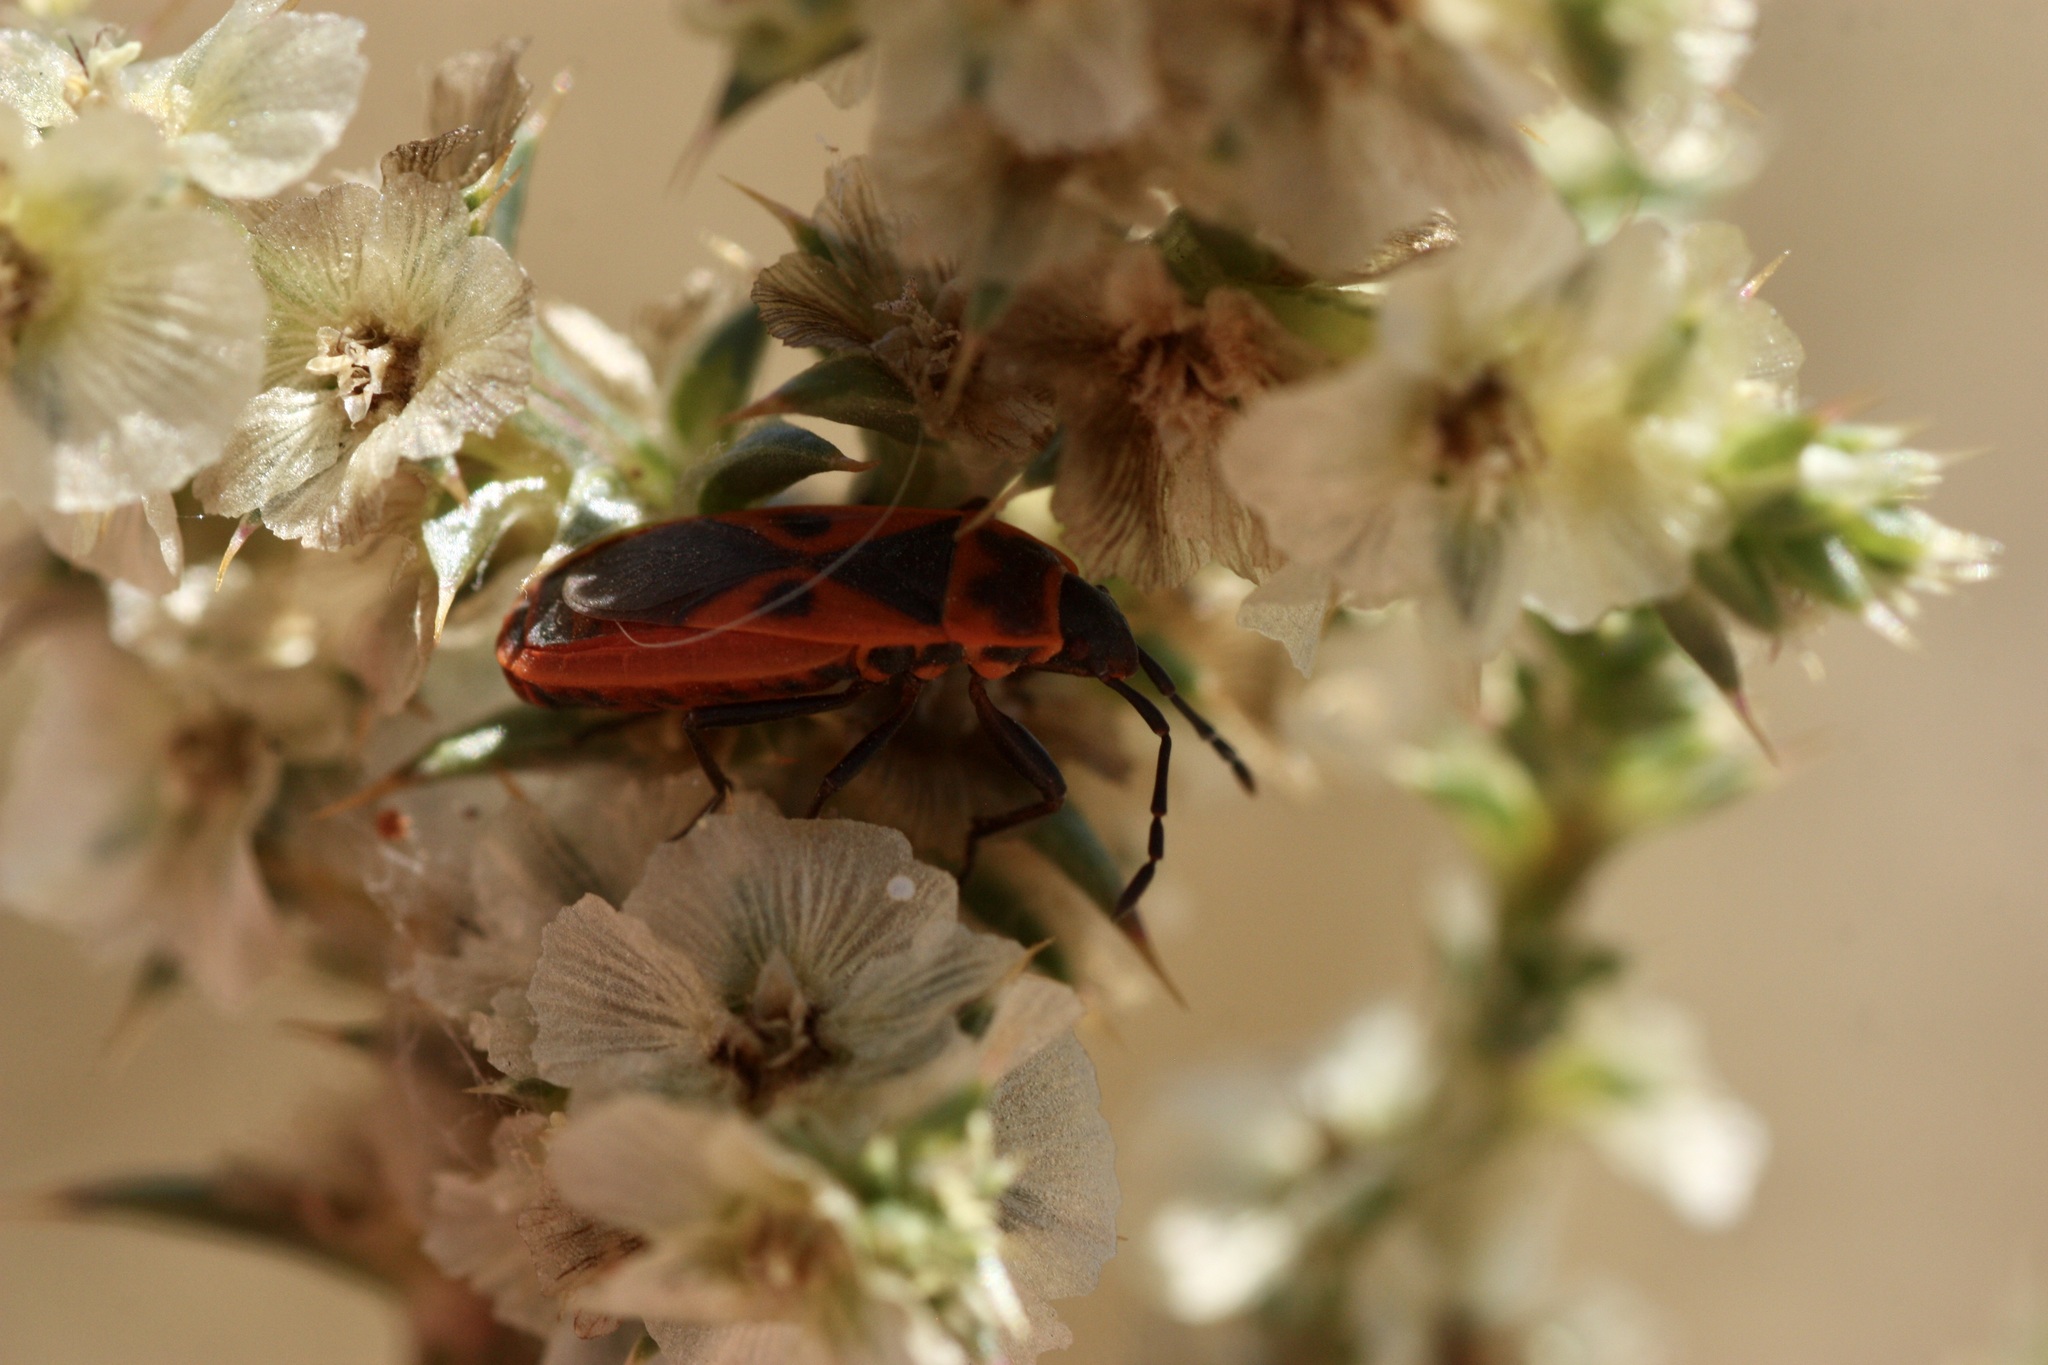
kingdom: Animalia
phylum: Arthropoda
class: Insecta
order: Hemiptera
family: Pyrrhocoridae
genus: Scantius
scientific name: Scantius aegyptius
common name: Red bug
